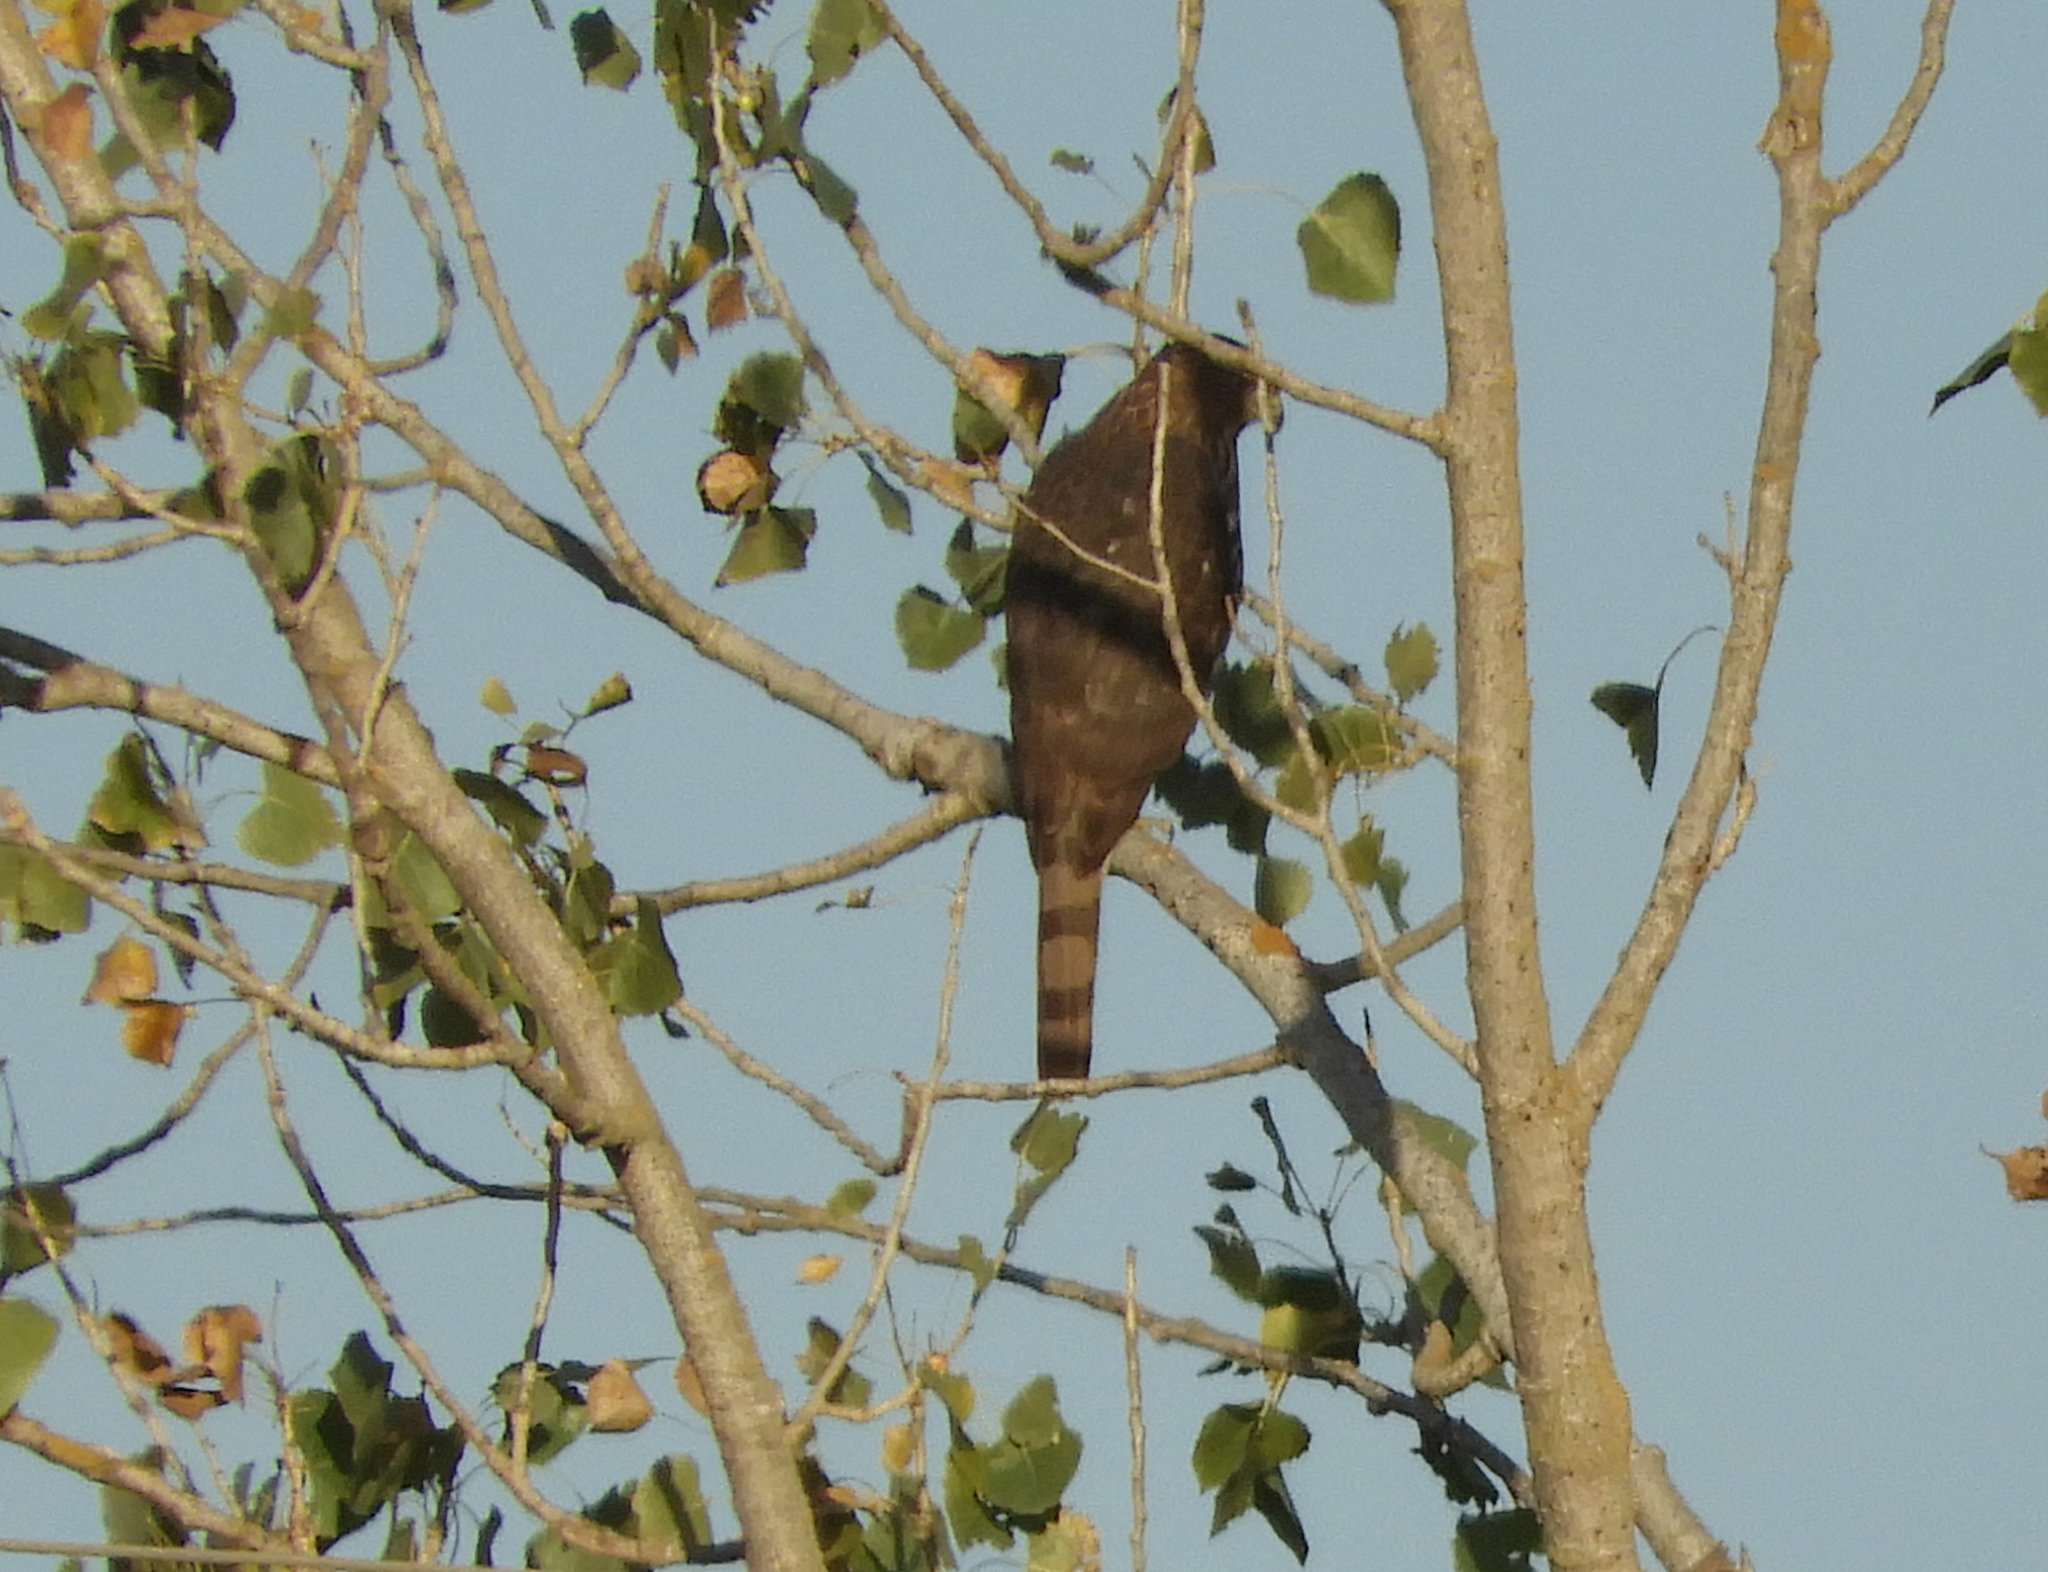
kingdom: Animalia
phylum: Chordata
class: Aves
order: Accipitriformes
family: Accipitridae
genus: Accipiter
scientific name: Accipiter cooperii
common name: Cooper's hawk
